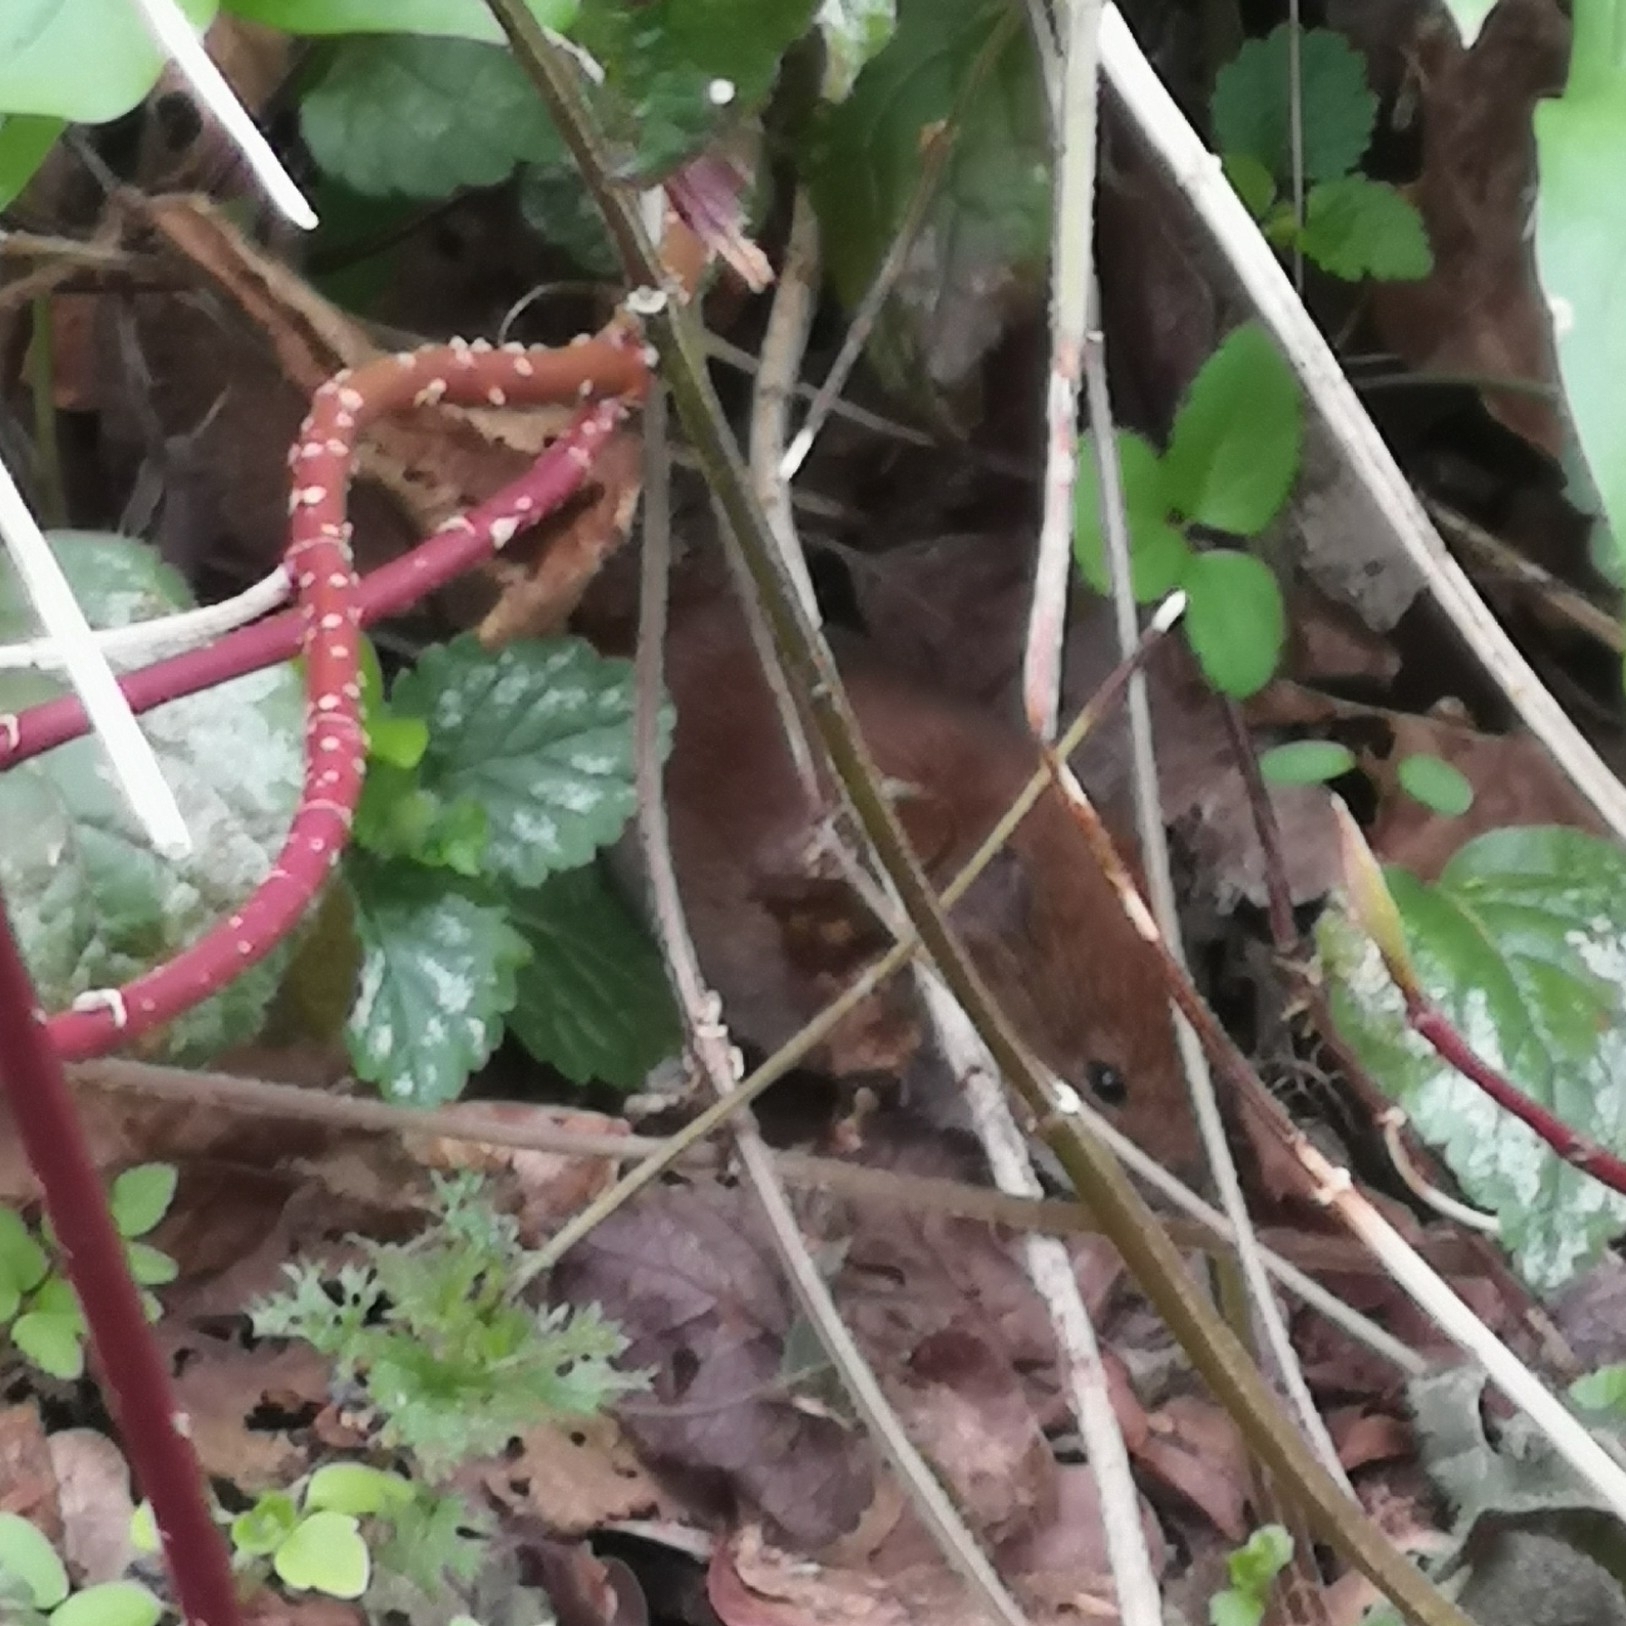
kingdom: Animalia
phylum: Chordata
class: Mammalia
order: Rodentia
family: Cricetidae
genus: Myodes
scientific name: Myodes glareolus
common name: Bank vole
